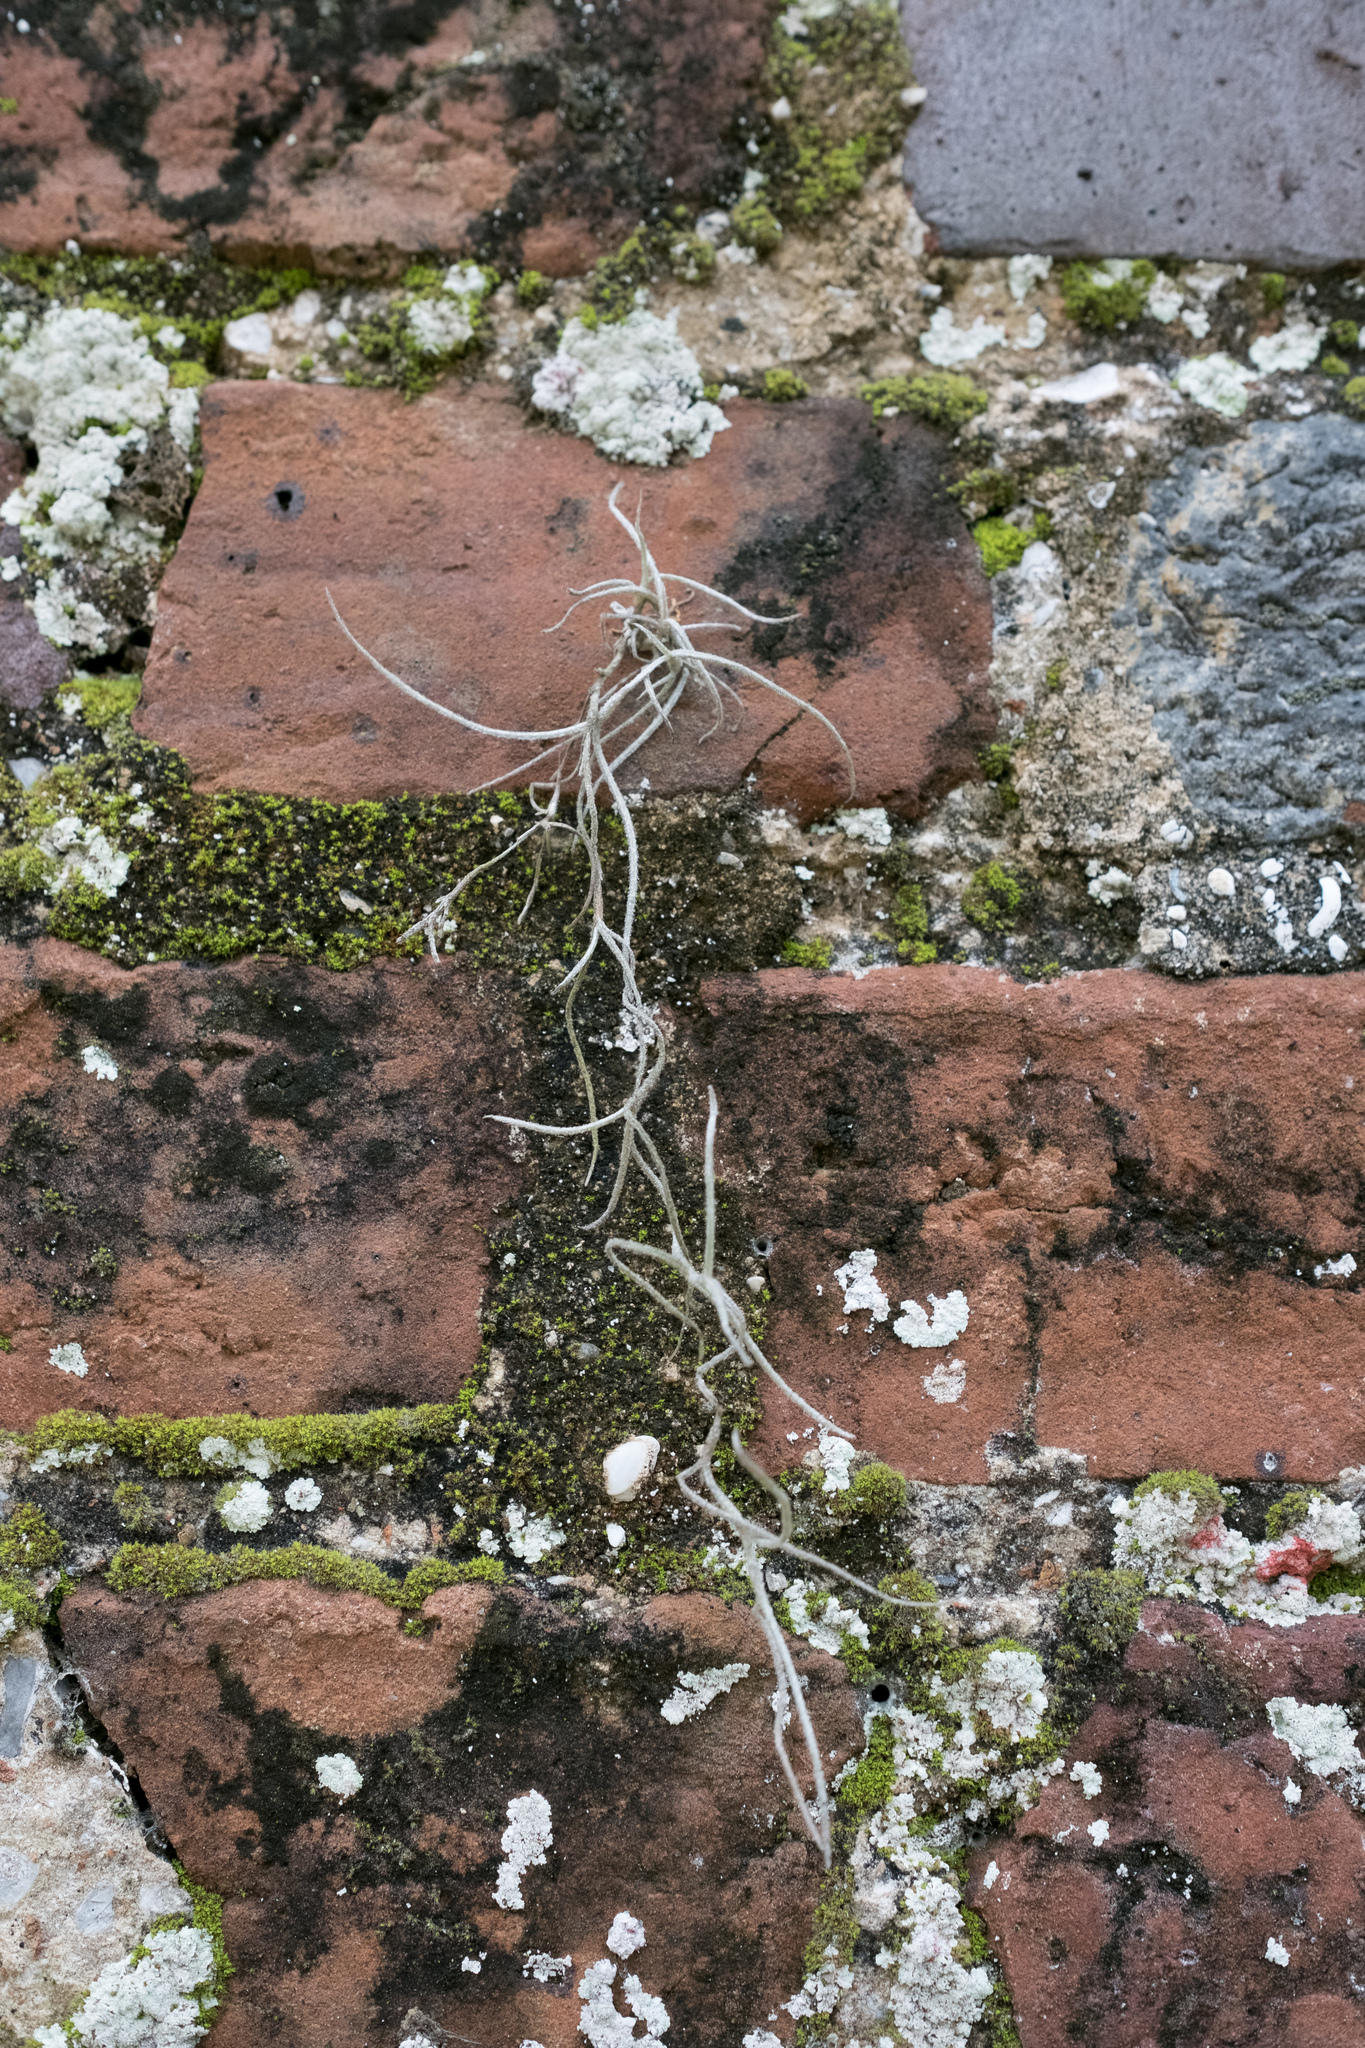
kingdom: Plantae
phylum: Tracheophyta
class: Liliopsida
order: Poales
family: Bromeliaceae
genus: Tillandsia
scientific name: Tillandsia usneoides
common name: Spanish moss
